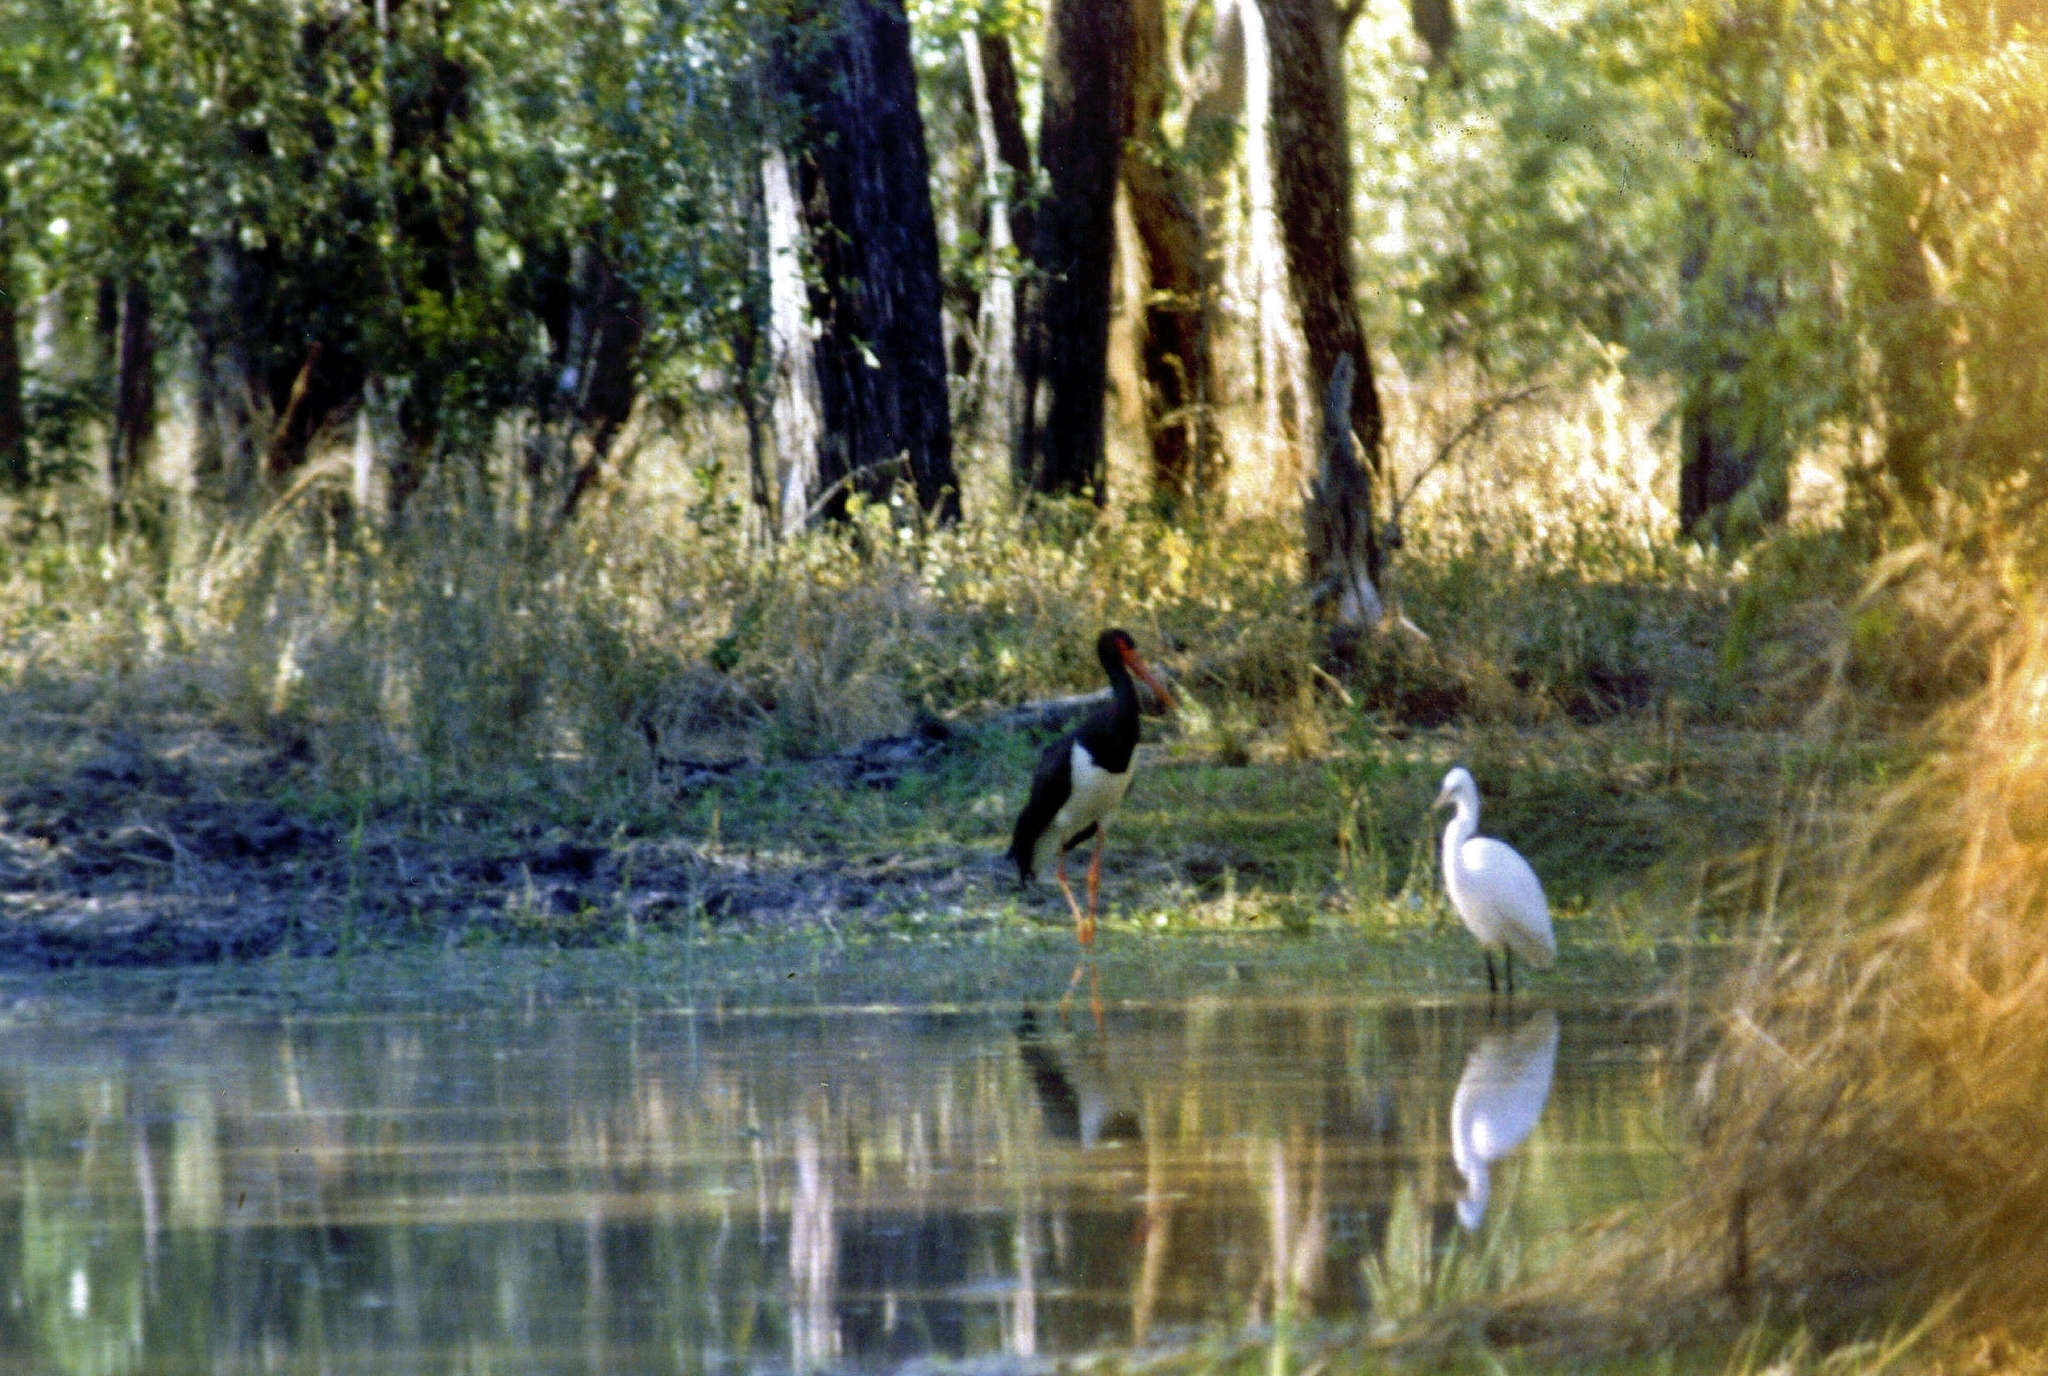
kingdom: Animalia
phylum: Chordata
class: Aves
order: Pelecaniformes
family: Ardeidae
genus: Ardea
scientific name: Ardea alba
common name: Great egret
